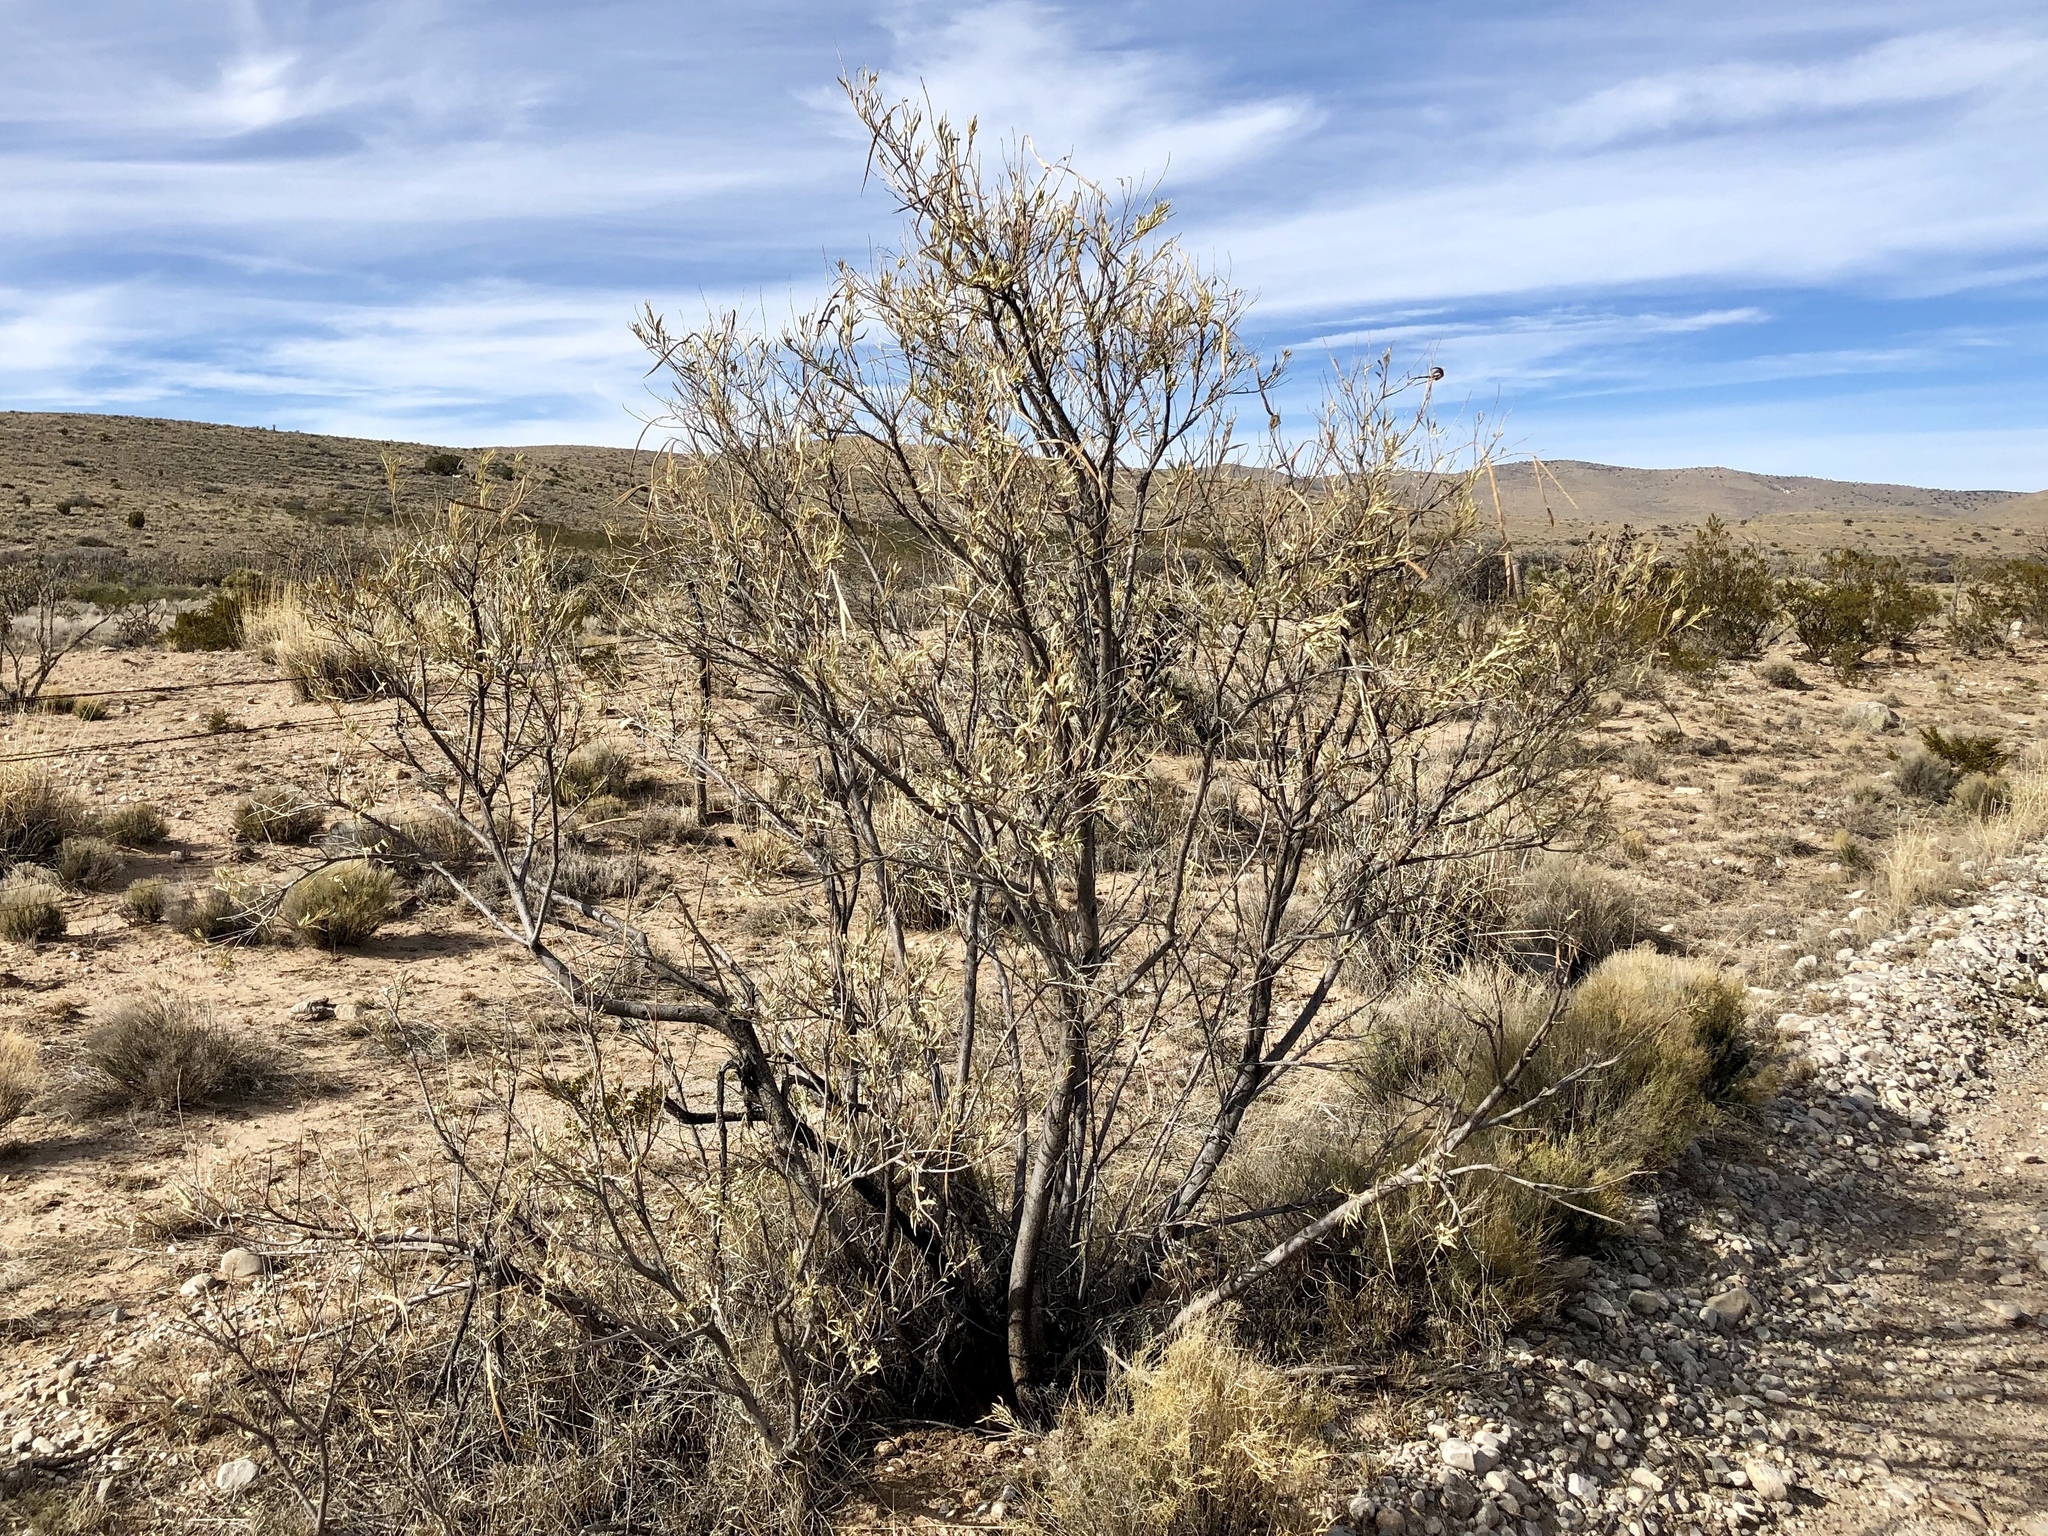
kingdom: Plantae
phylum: Tracheophyta
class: Magnoliopsida
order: Lamiales
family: Bignoniaceae
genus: Chilopsis
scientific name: Chilopsis linearis
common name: Desert-willow
